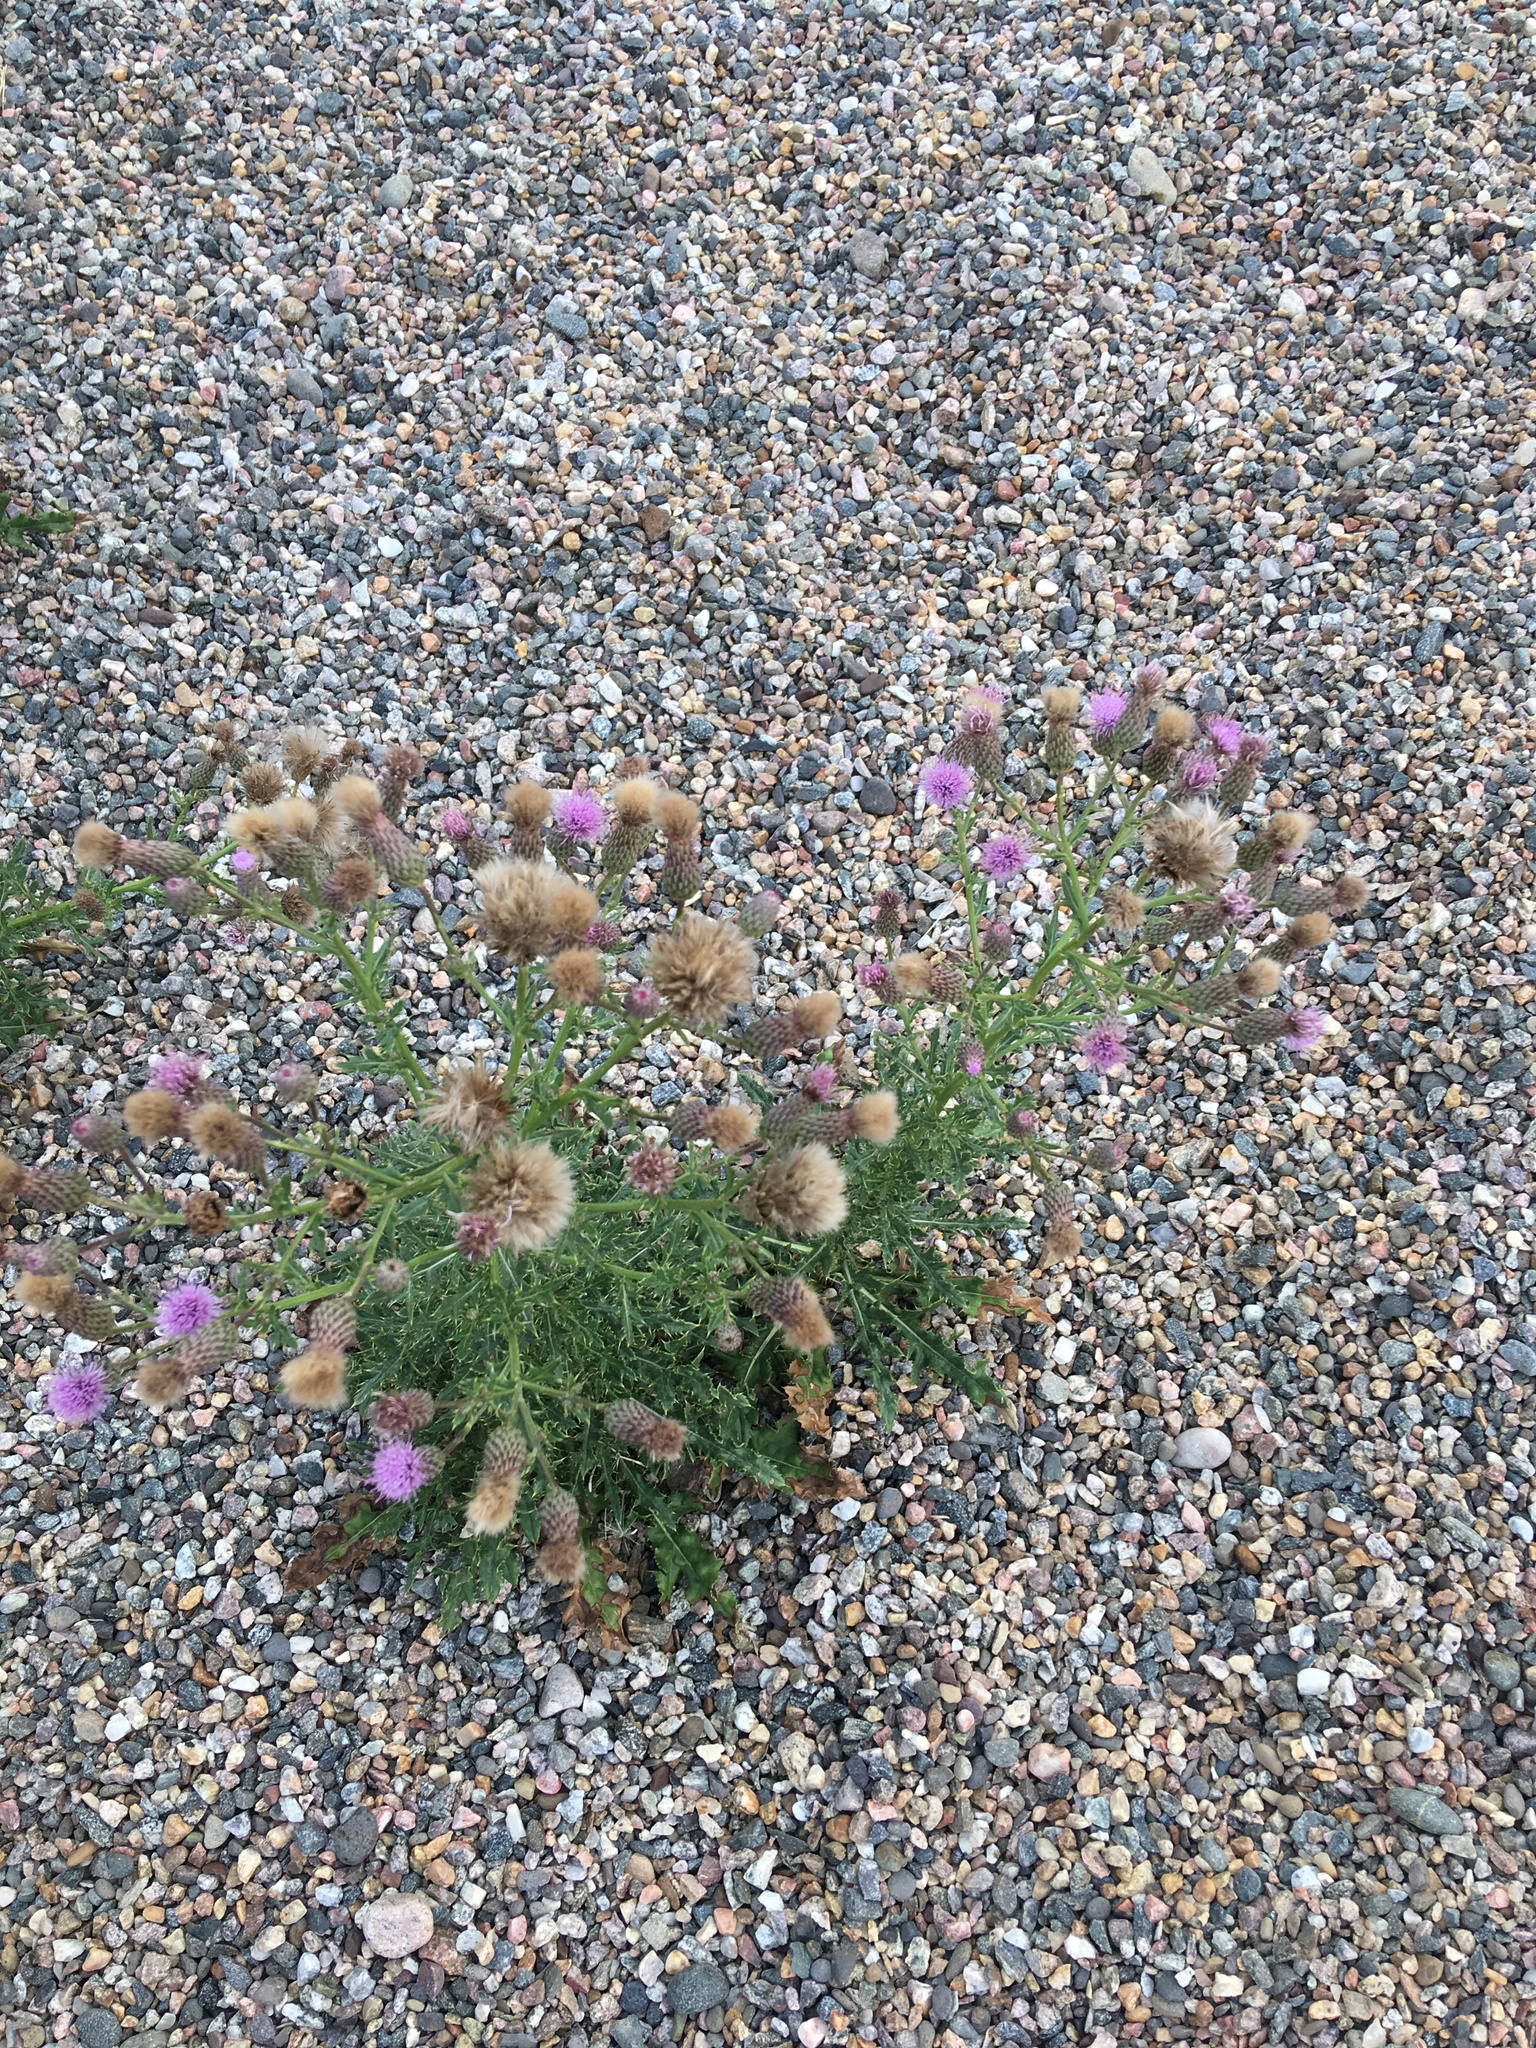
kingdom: Plantae
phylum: Tracheophyta
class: Magnoliopsida
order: Asterales
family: Asteraceae
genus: Cirsium
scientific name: Cirsium arvense
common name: Creeping thistle
